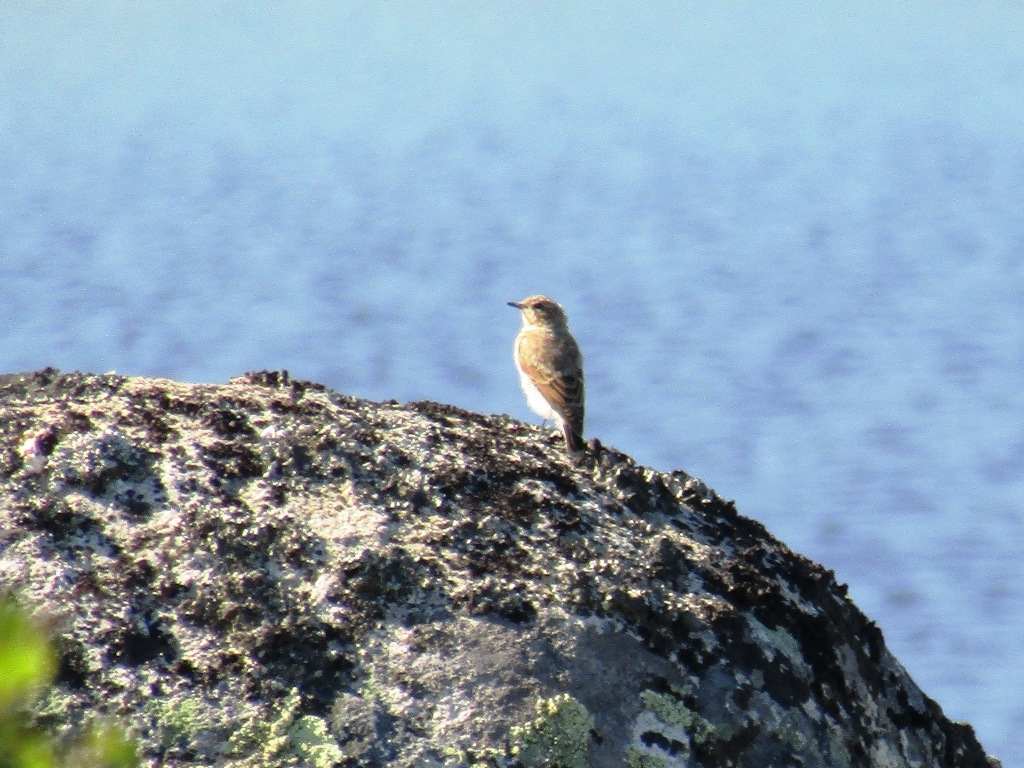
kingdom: Animalia
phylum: Chordata
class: Aves
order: Passeriformes
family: Muscicapidae
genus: Oenanthe
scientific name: Oenanthe oenanthe
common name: Northern wheatear
